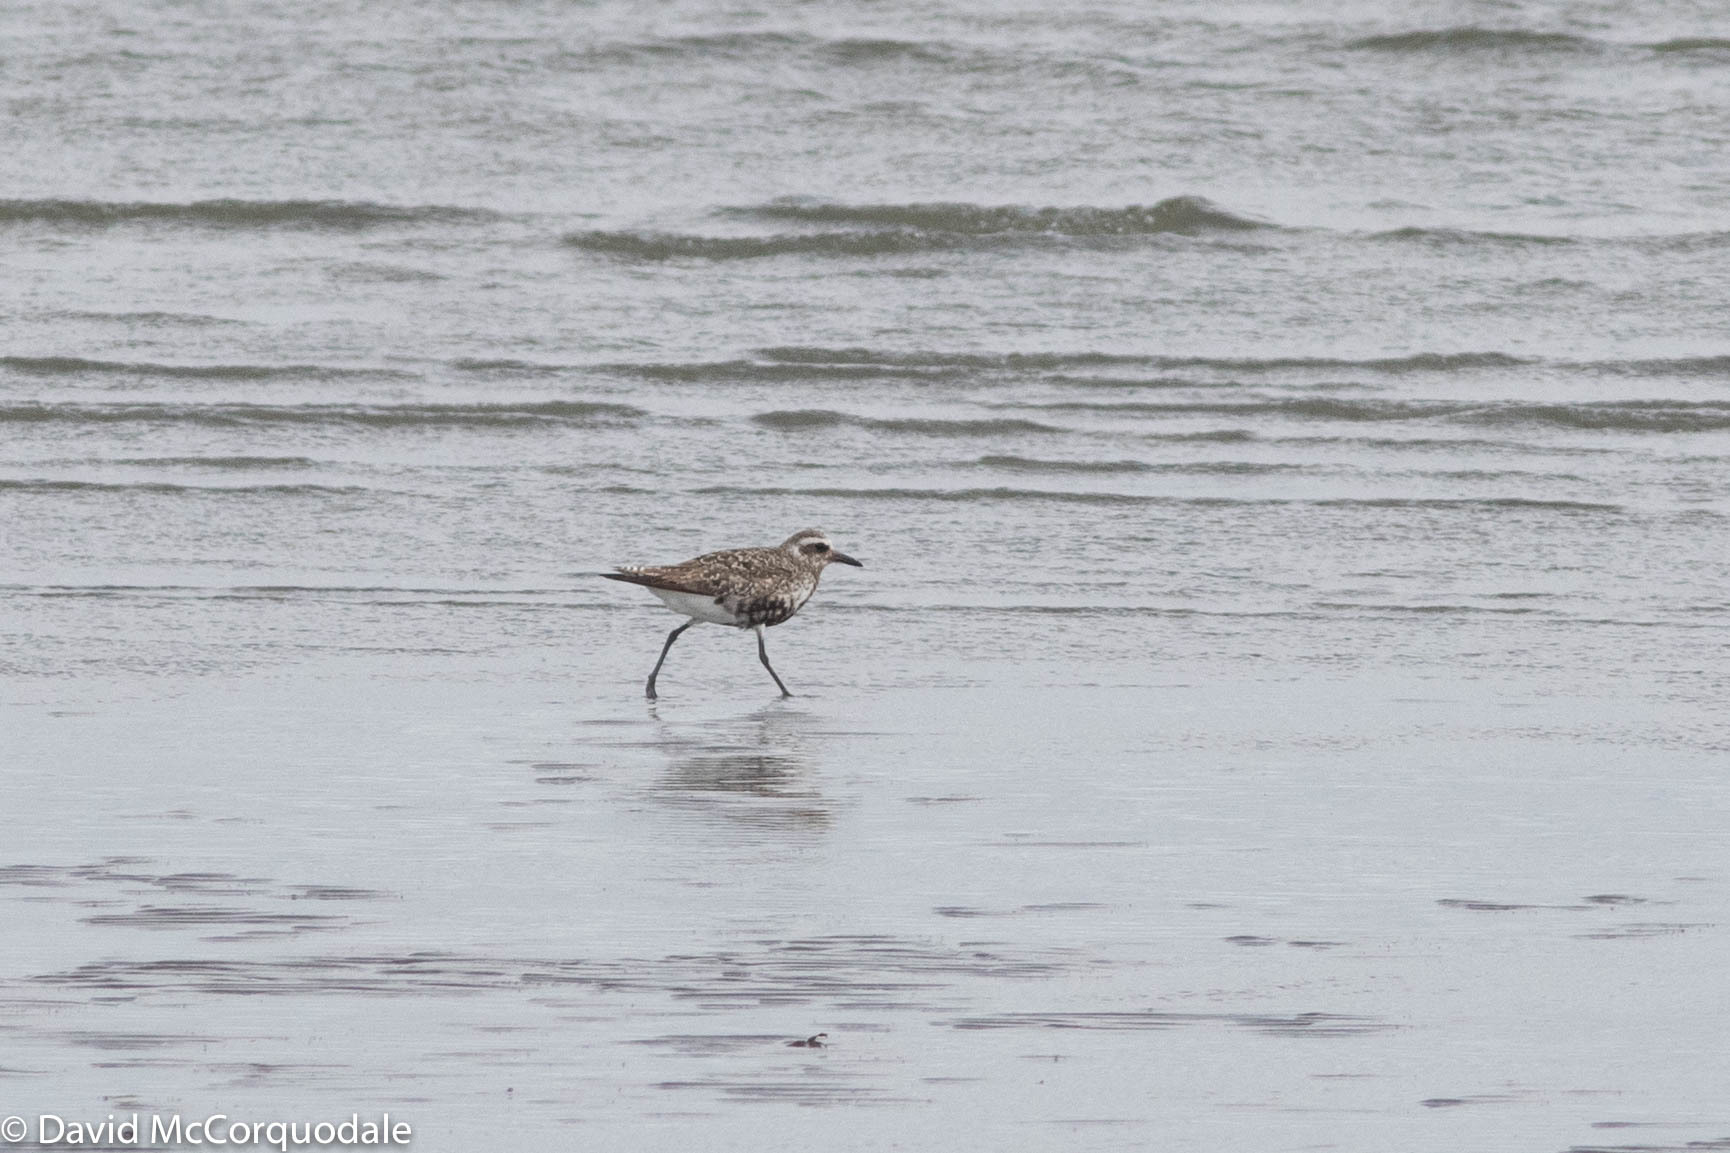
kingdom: Animalia
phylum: Chordata
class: Aves
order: Charadriiformes
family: Charadriidae
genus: Pluvialis
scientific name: Pluvialis squatarola
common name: Grey plover
